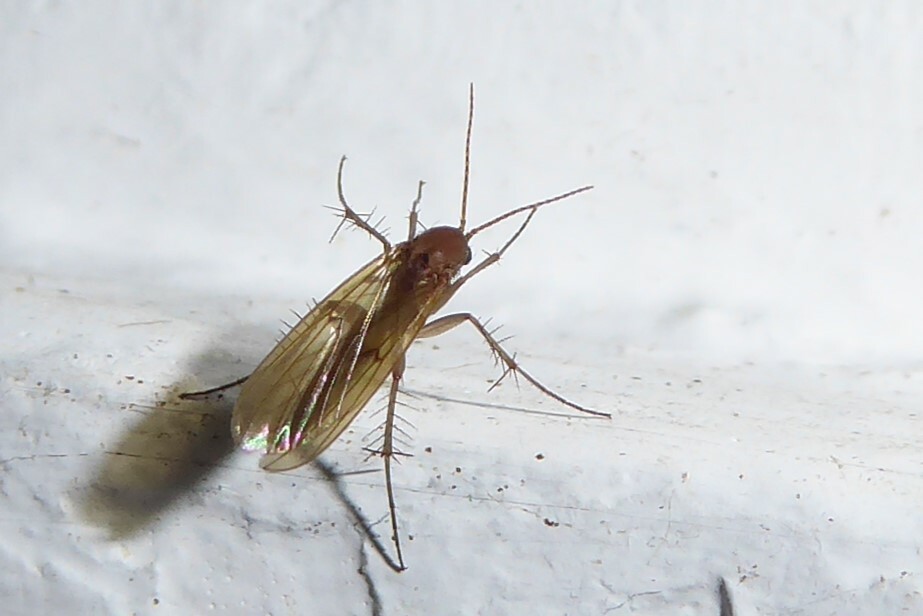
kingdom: Animalia
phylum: Arthropoda
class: Insecta
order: Diptera
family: Mycetophilidae
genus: Mycetophila
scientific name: Mycetophila fagi
